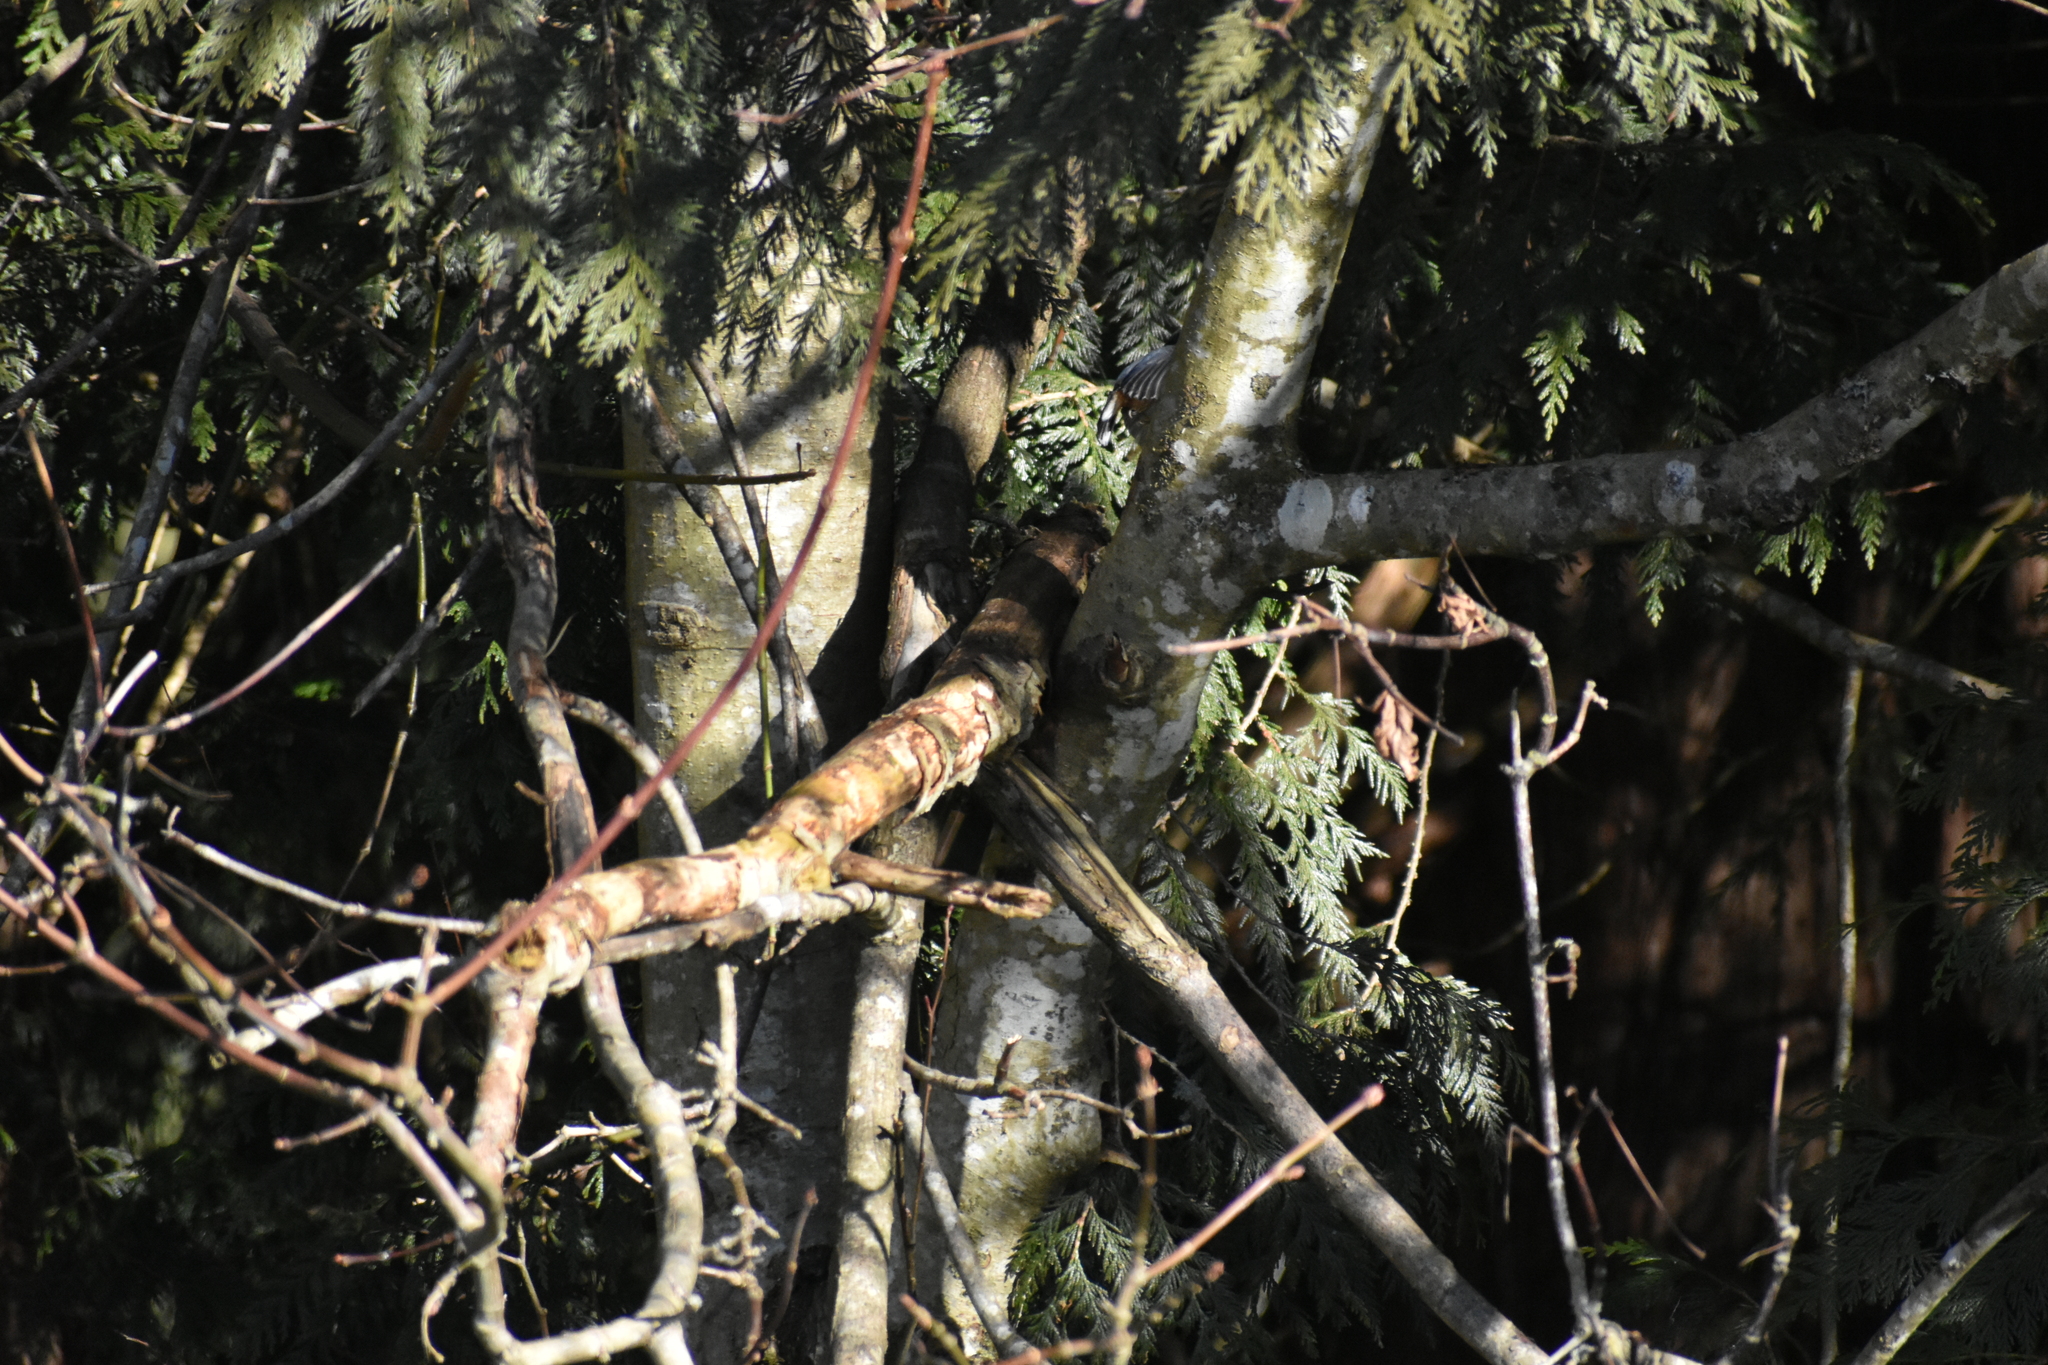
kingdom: Animalia
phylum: Chordata
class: Aves
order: Passeriformes
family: Sittidae
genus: Sitta
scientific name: Sitta canadensis
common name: Red-breasted nuthatch
